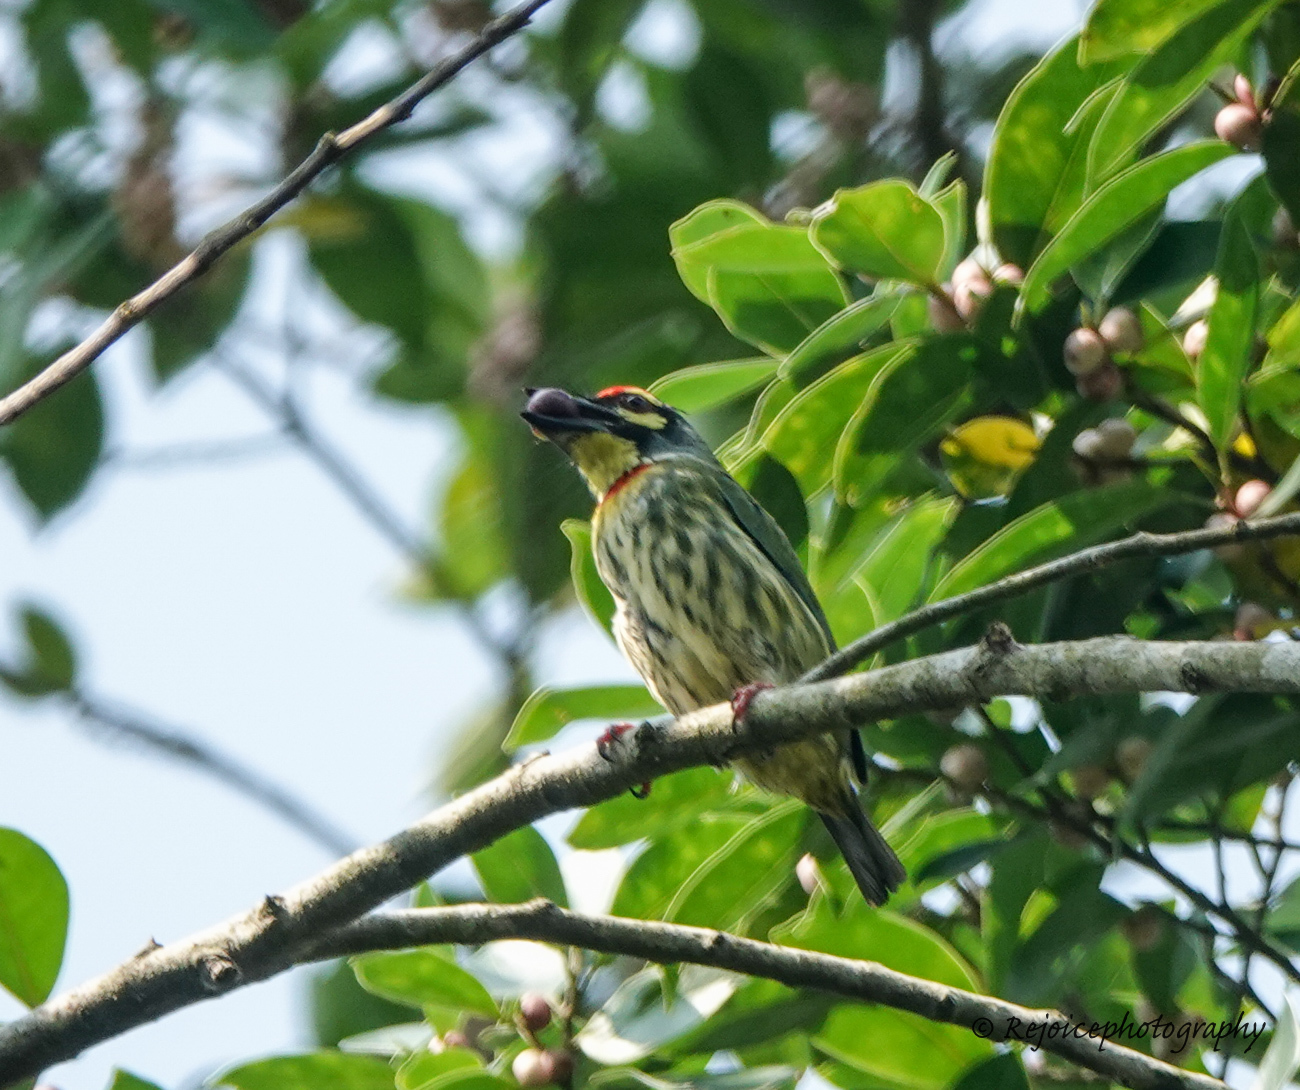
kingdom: Animalia
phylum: Chordata
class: Aves
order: Piciformes
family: Megalaimidae
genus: Psilopogon
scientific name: Psilopogon haemacephalus
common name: Coppersmith barbet
